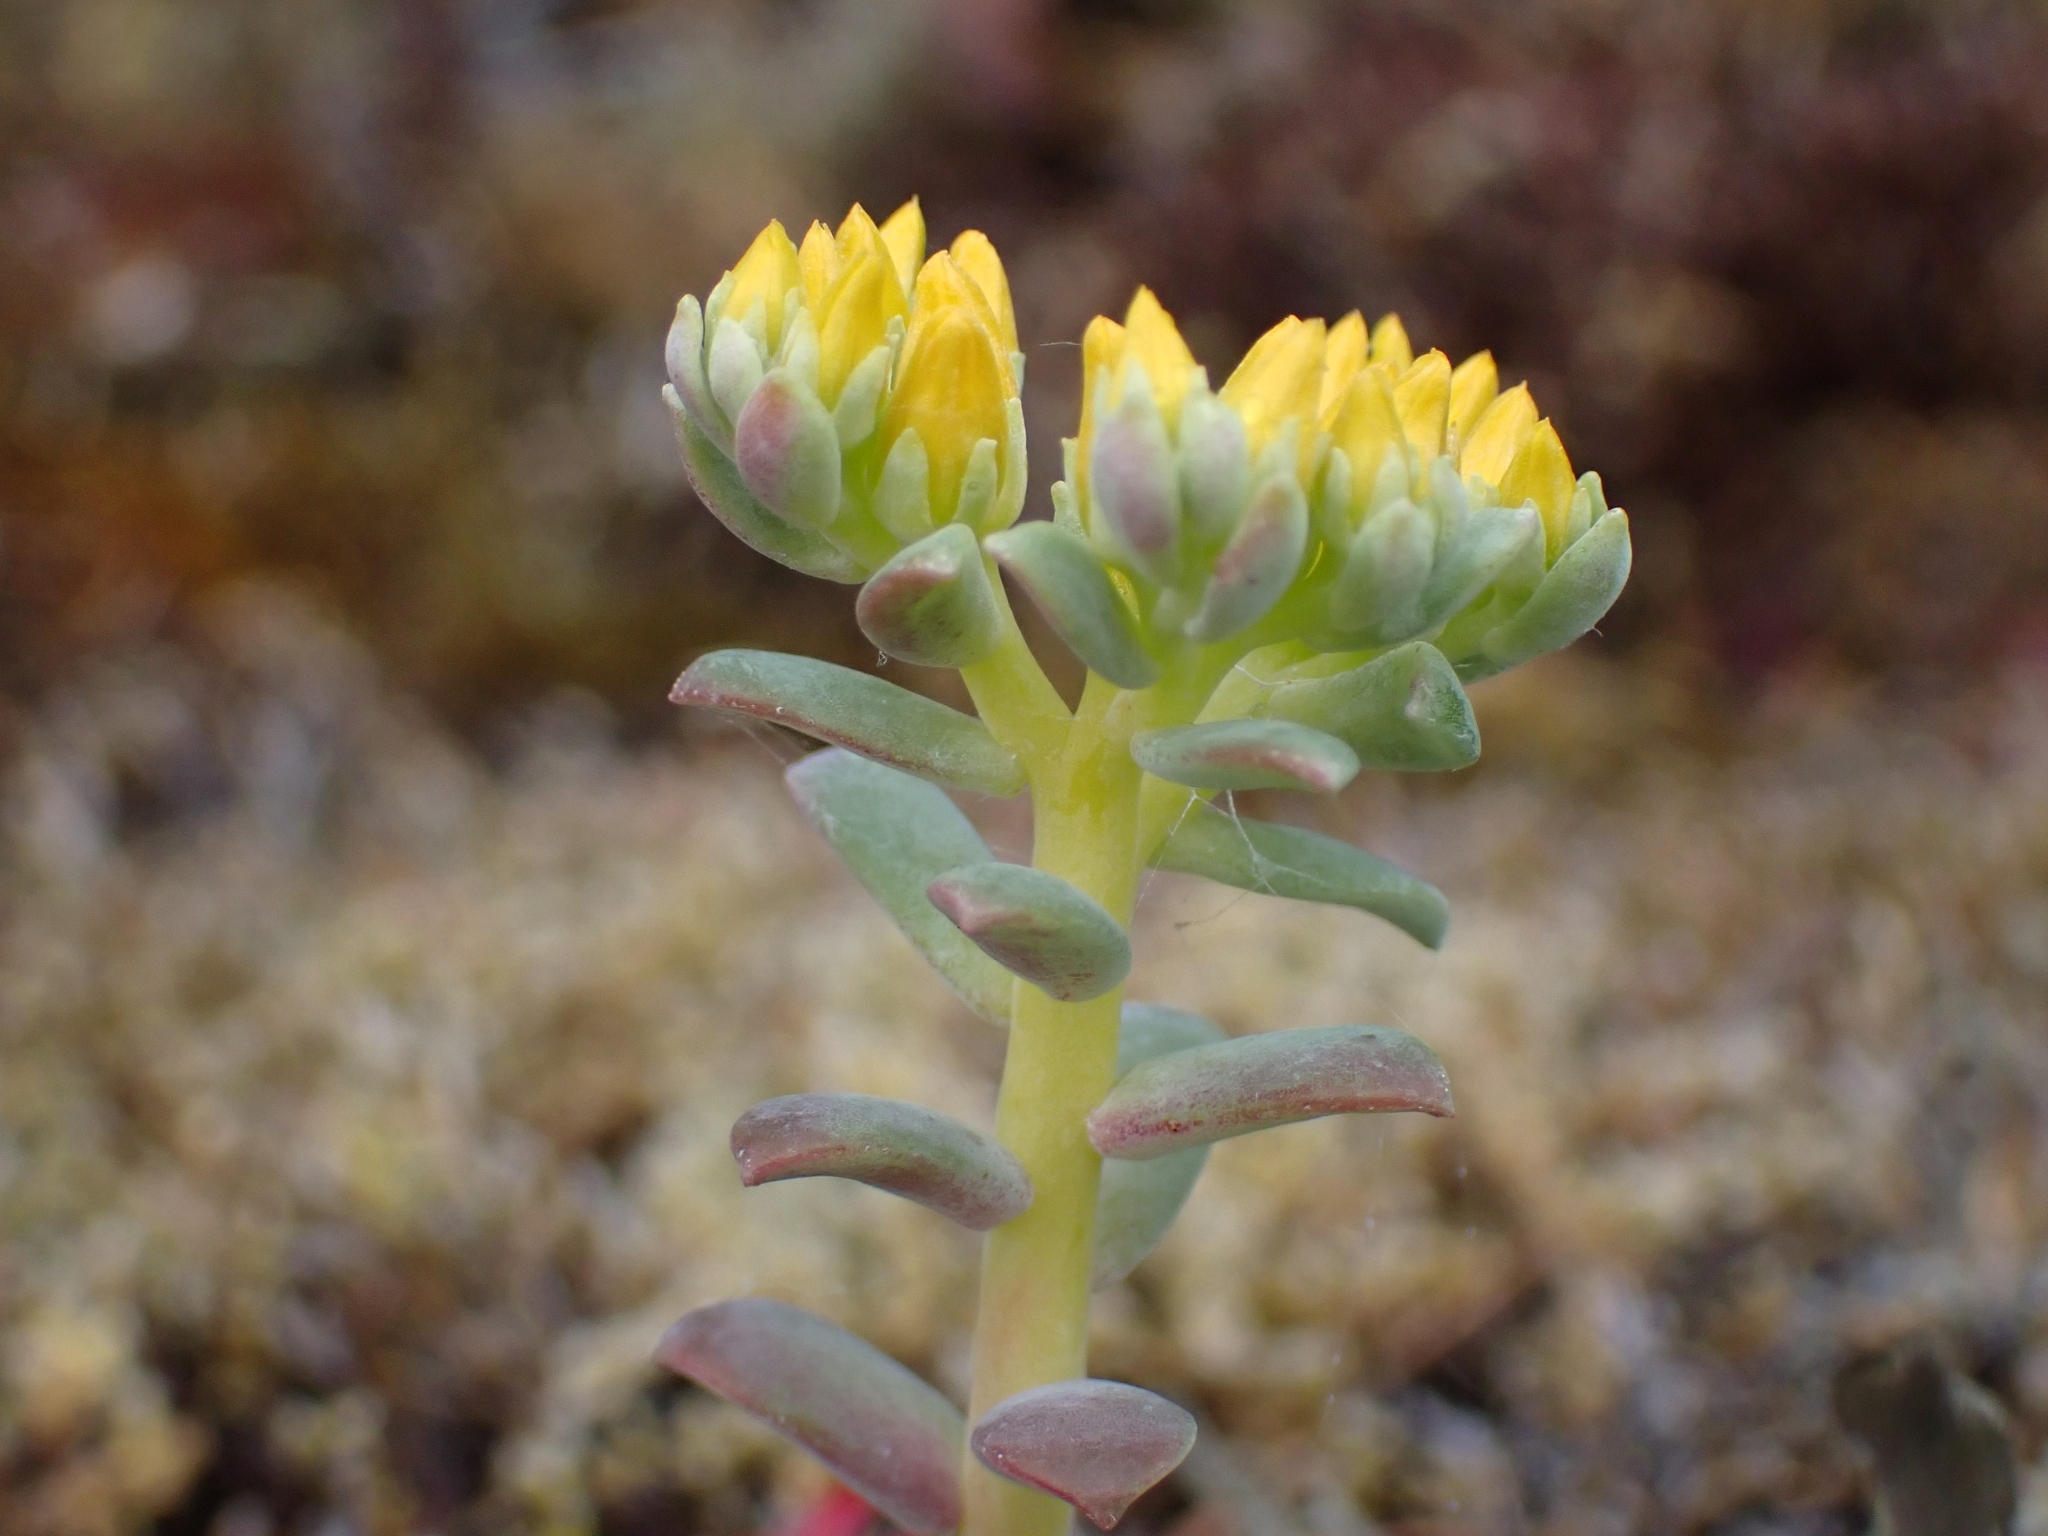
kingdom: Plantae
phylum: Tracheophyta
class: Magnoliopsida
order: Saxifragales
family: Crassulaceae
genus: Sedum
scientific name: Sedum spathulifolium
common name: Colorado stonecrop
